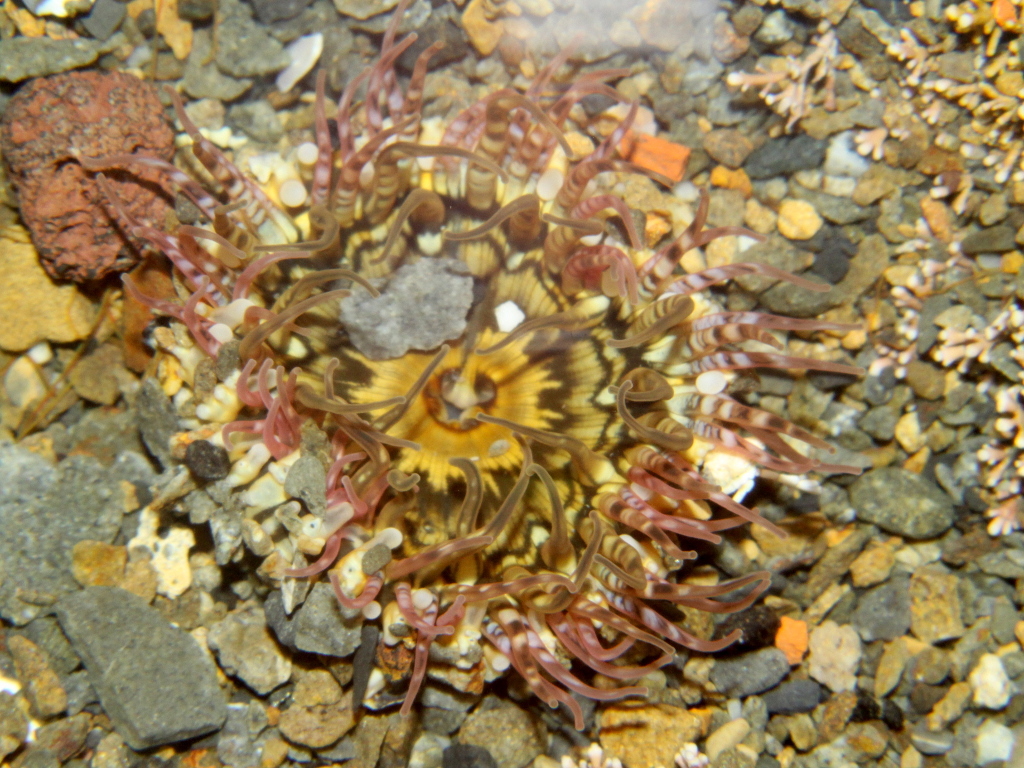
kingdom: Animalia
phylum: Cnidaria
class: Anthozoa
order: Actiniaria
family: Actiniidae
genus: Oulactis
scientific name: Oulactis muscosa
